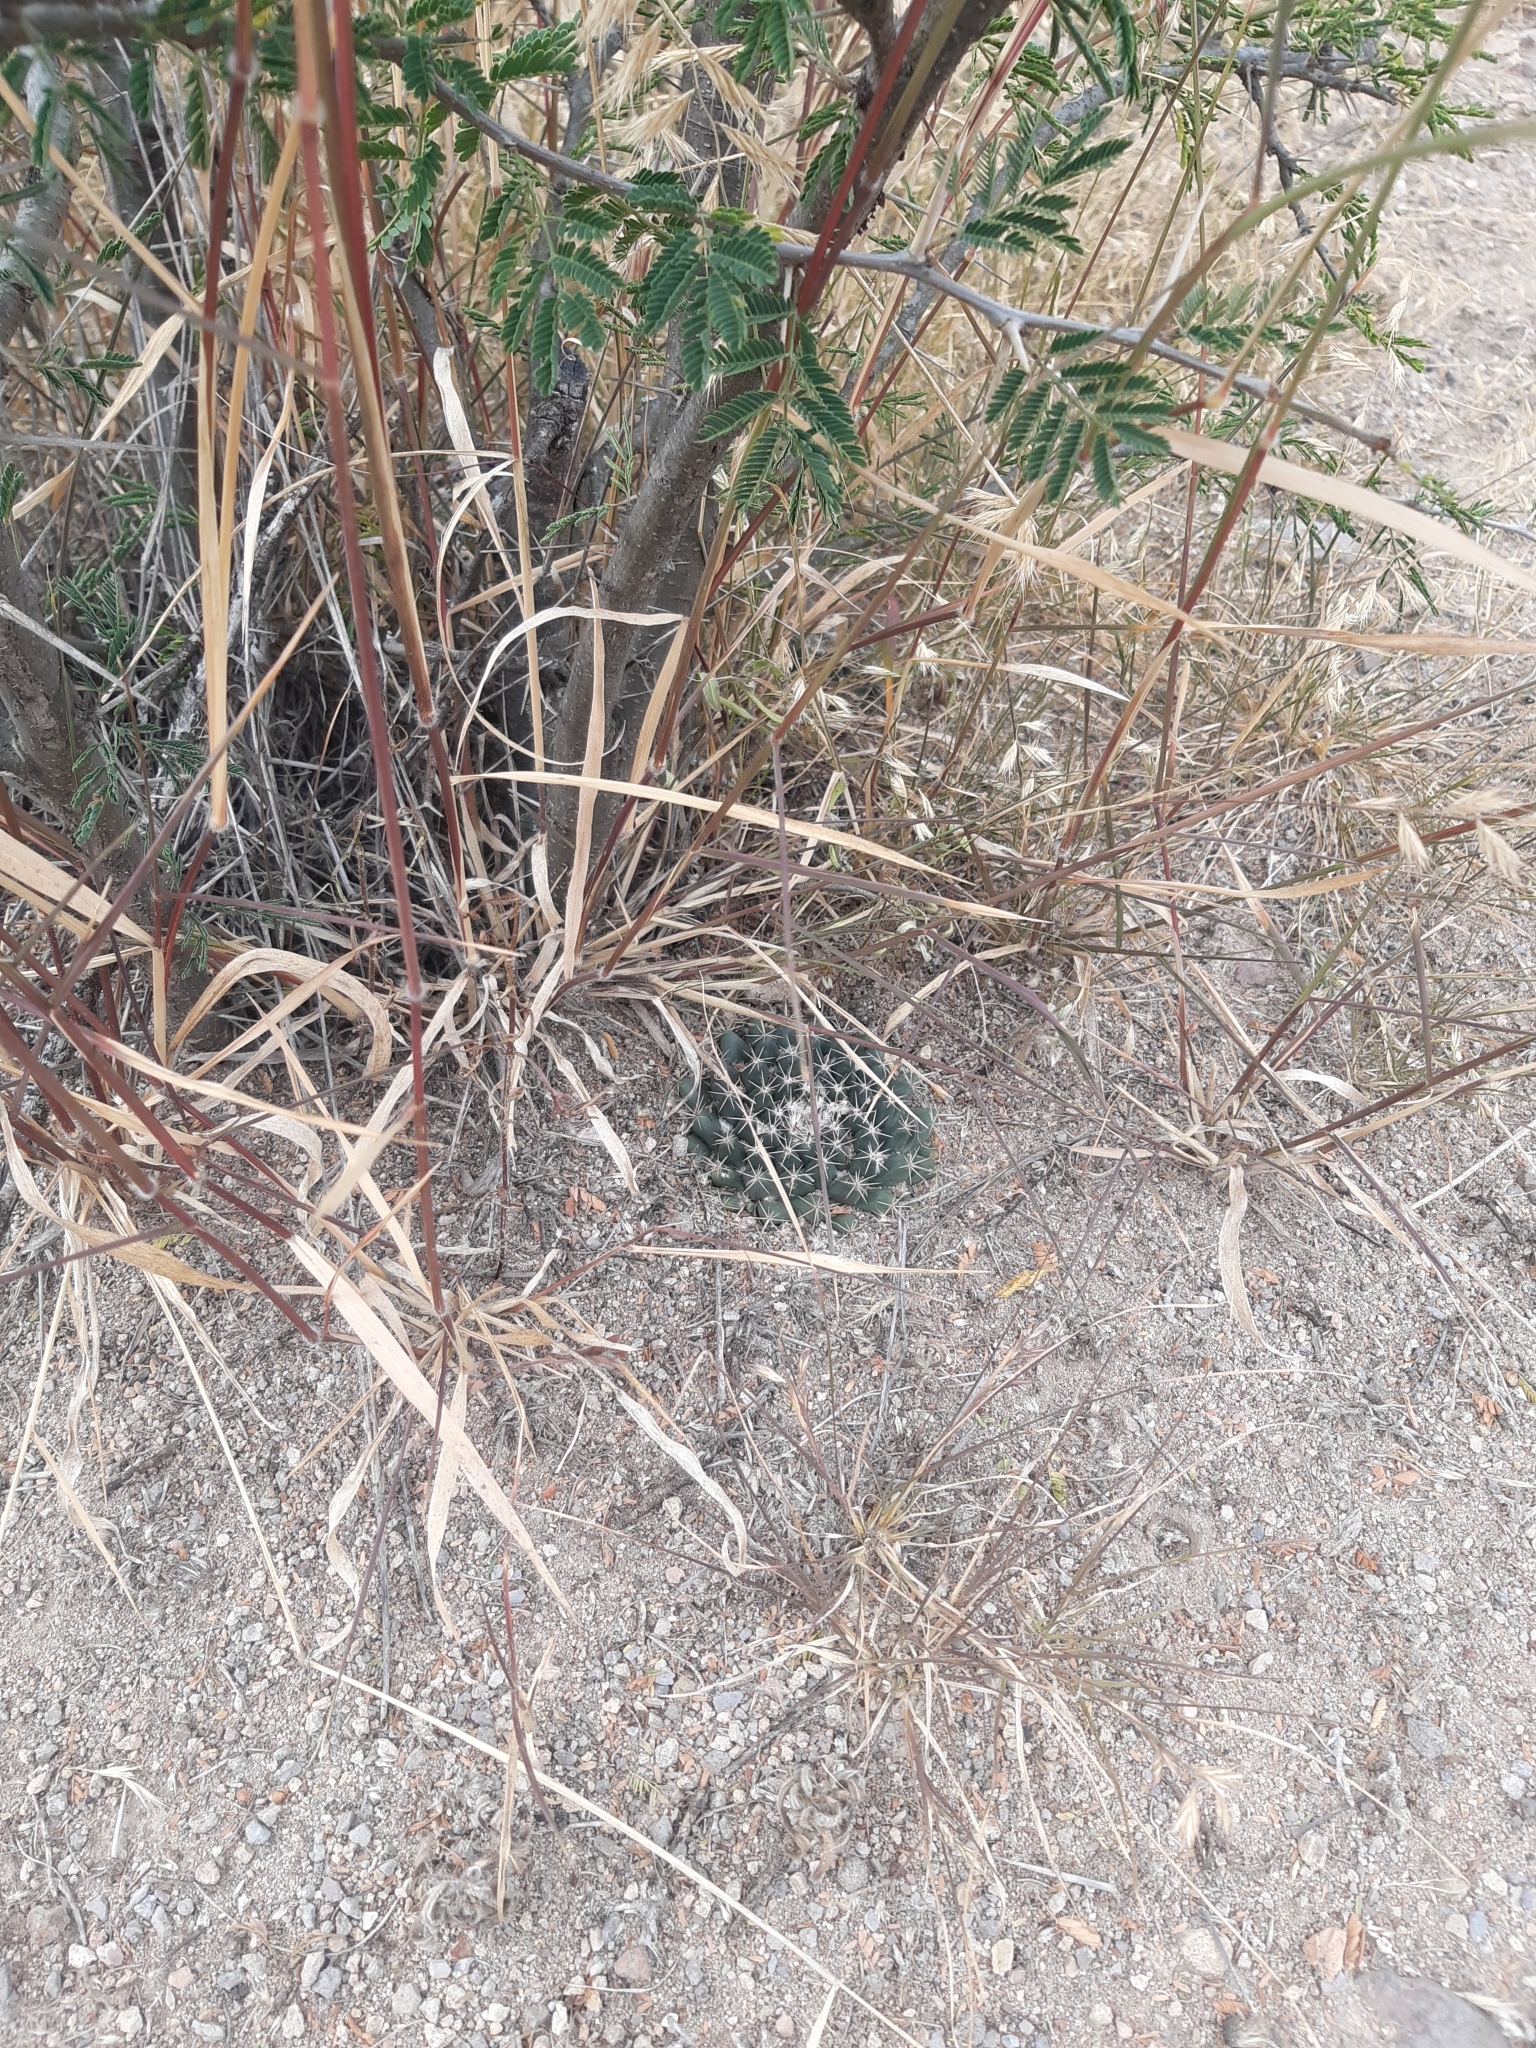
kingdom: Plantae
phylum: Tracheophyta
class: Magnoliopsida
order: Caryophyllales
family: Cactaceae
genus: Mammillaria
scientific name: Mammillaria uncinata
